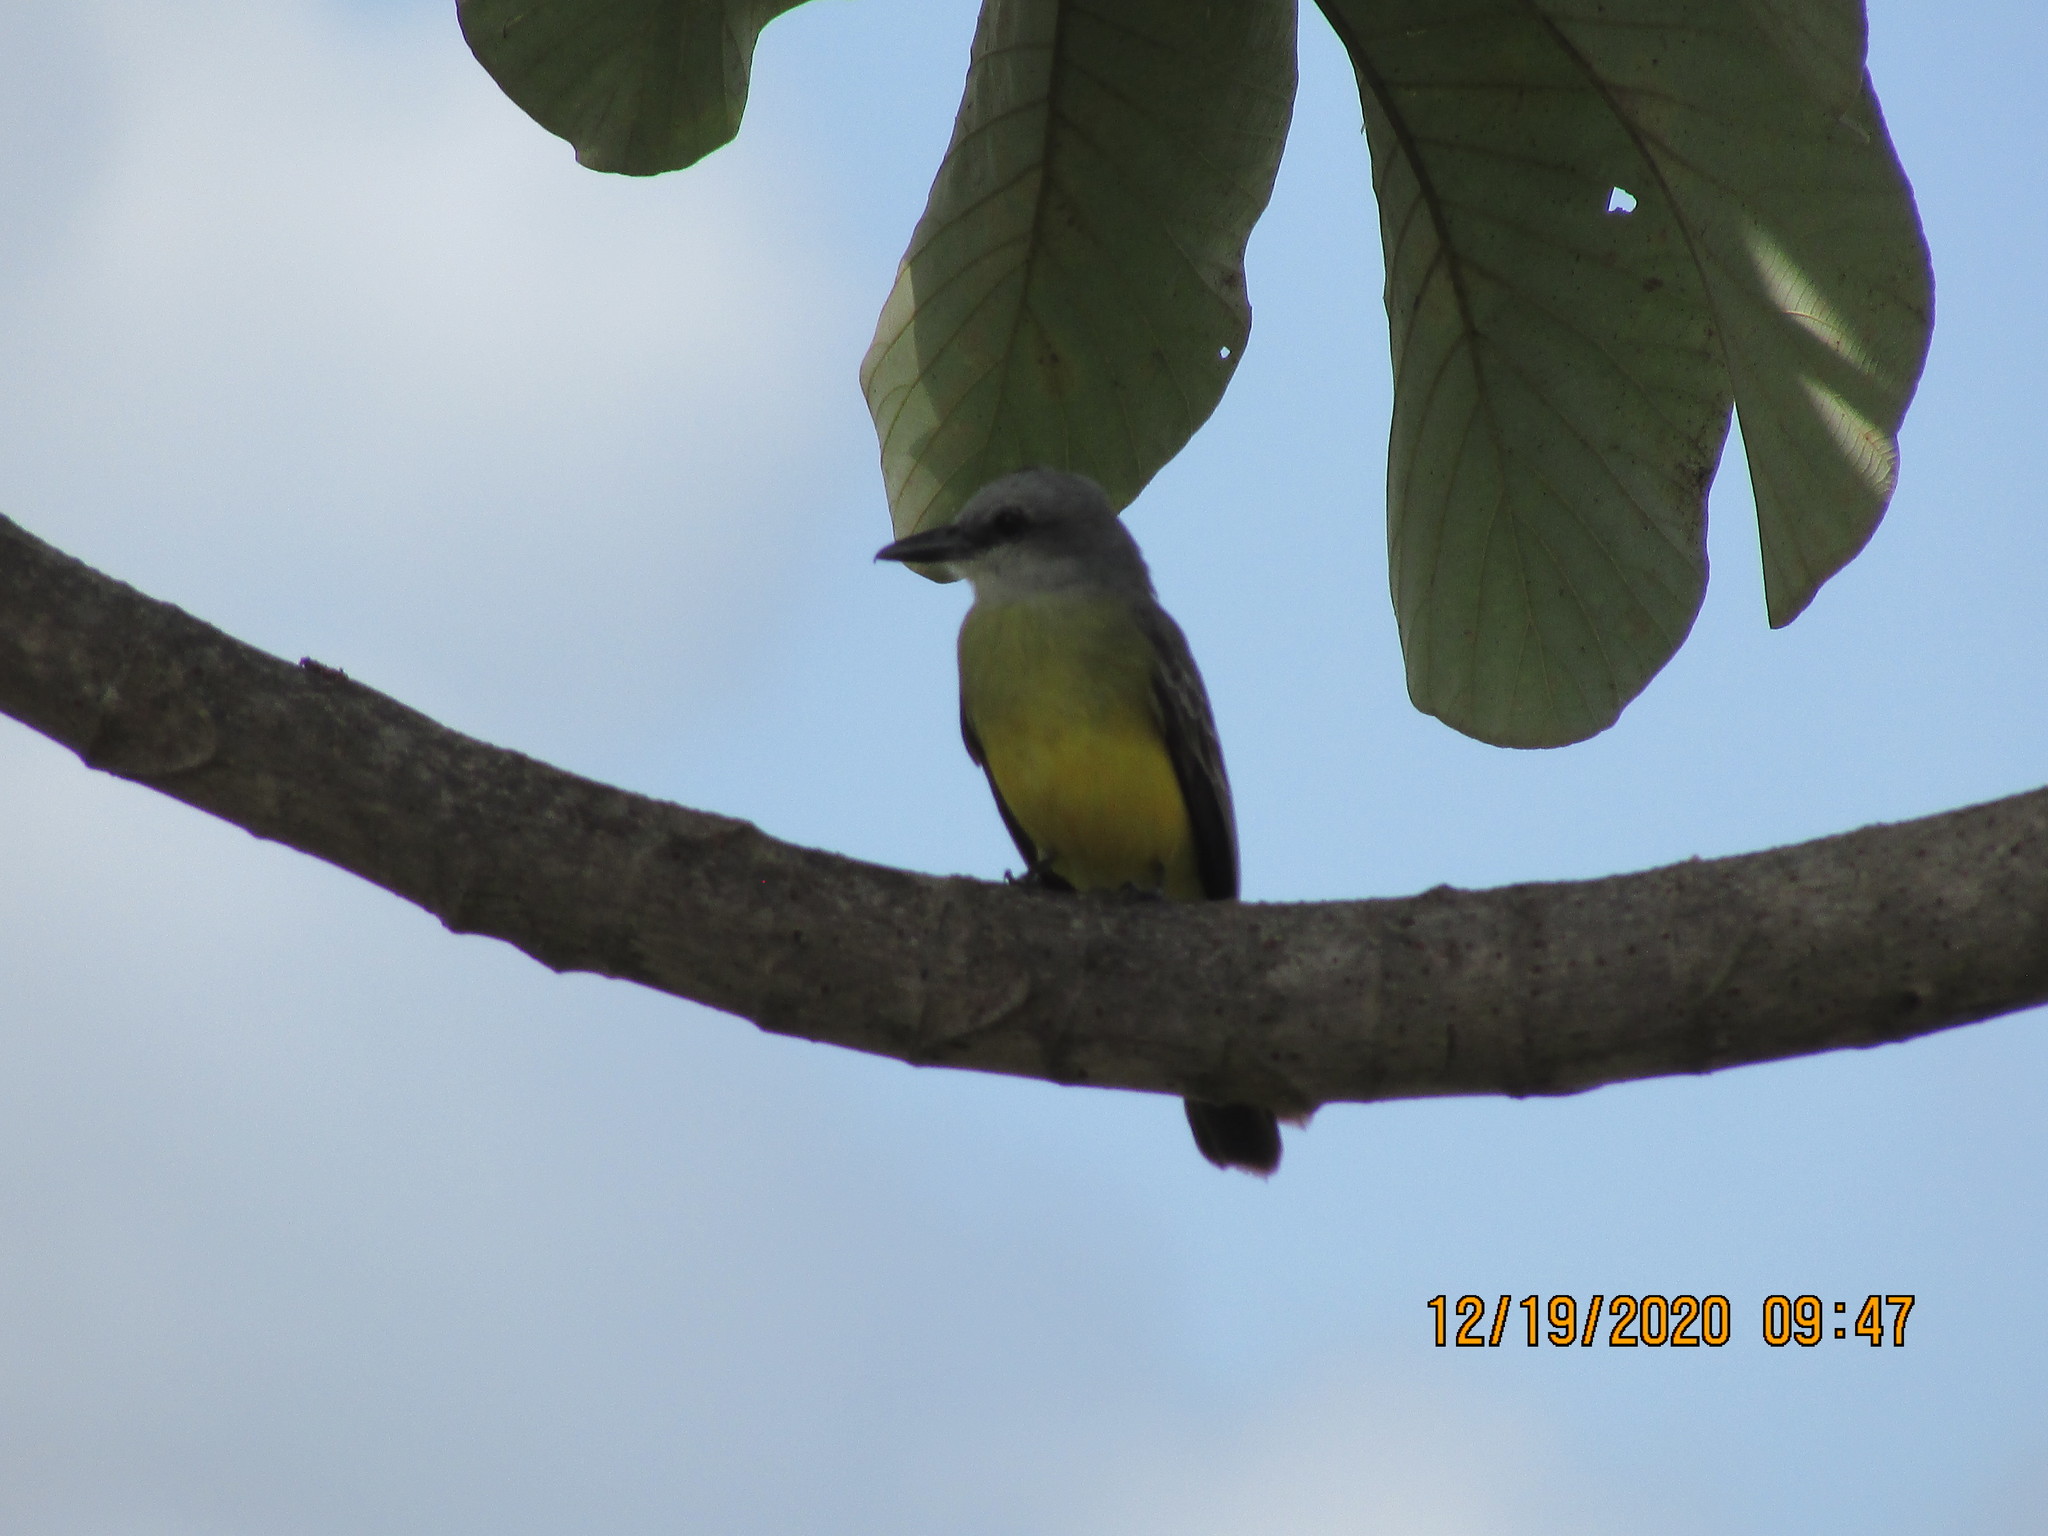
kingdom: Animalia
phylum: Chordata
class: Aves
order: Passeriformes
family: Tyrannidae
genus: Tyrannus
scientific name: Tyrannus melancholicus
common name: Tropical kingbird
